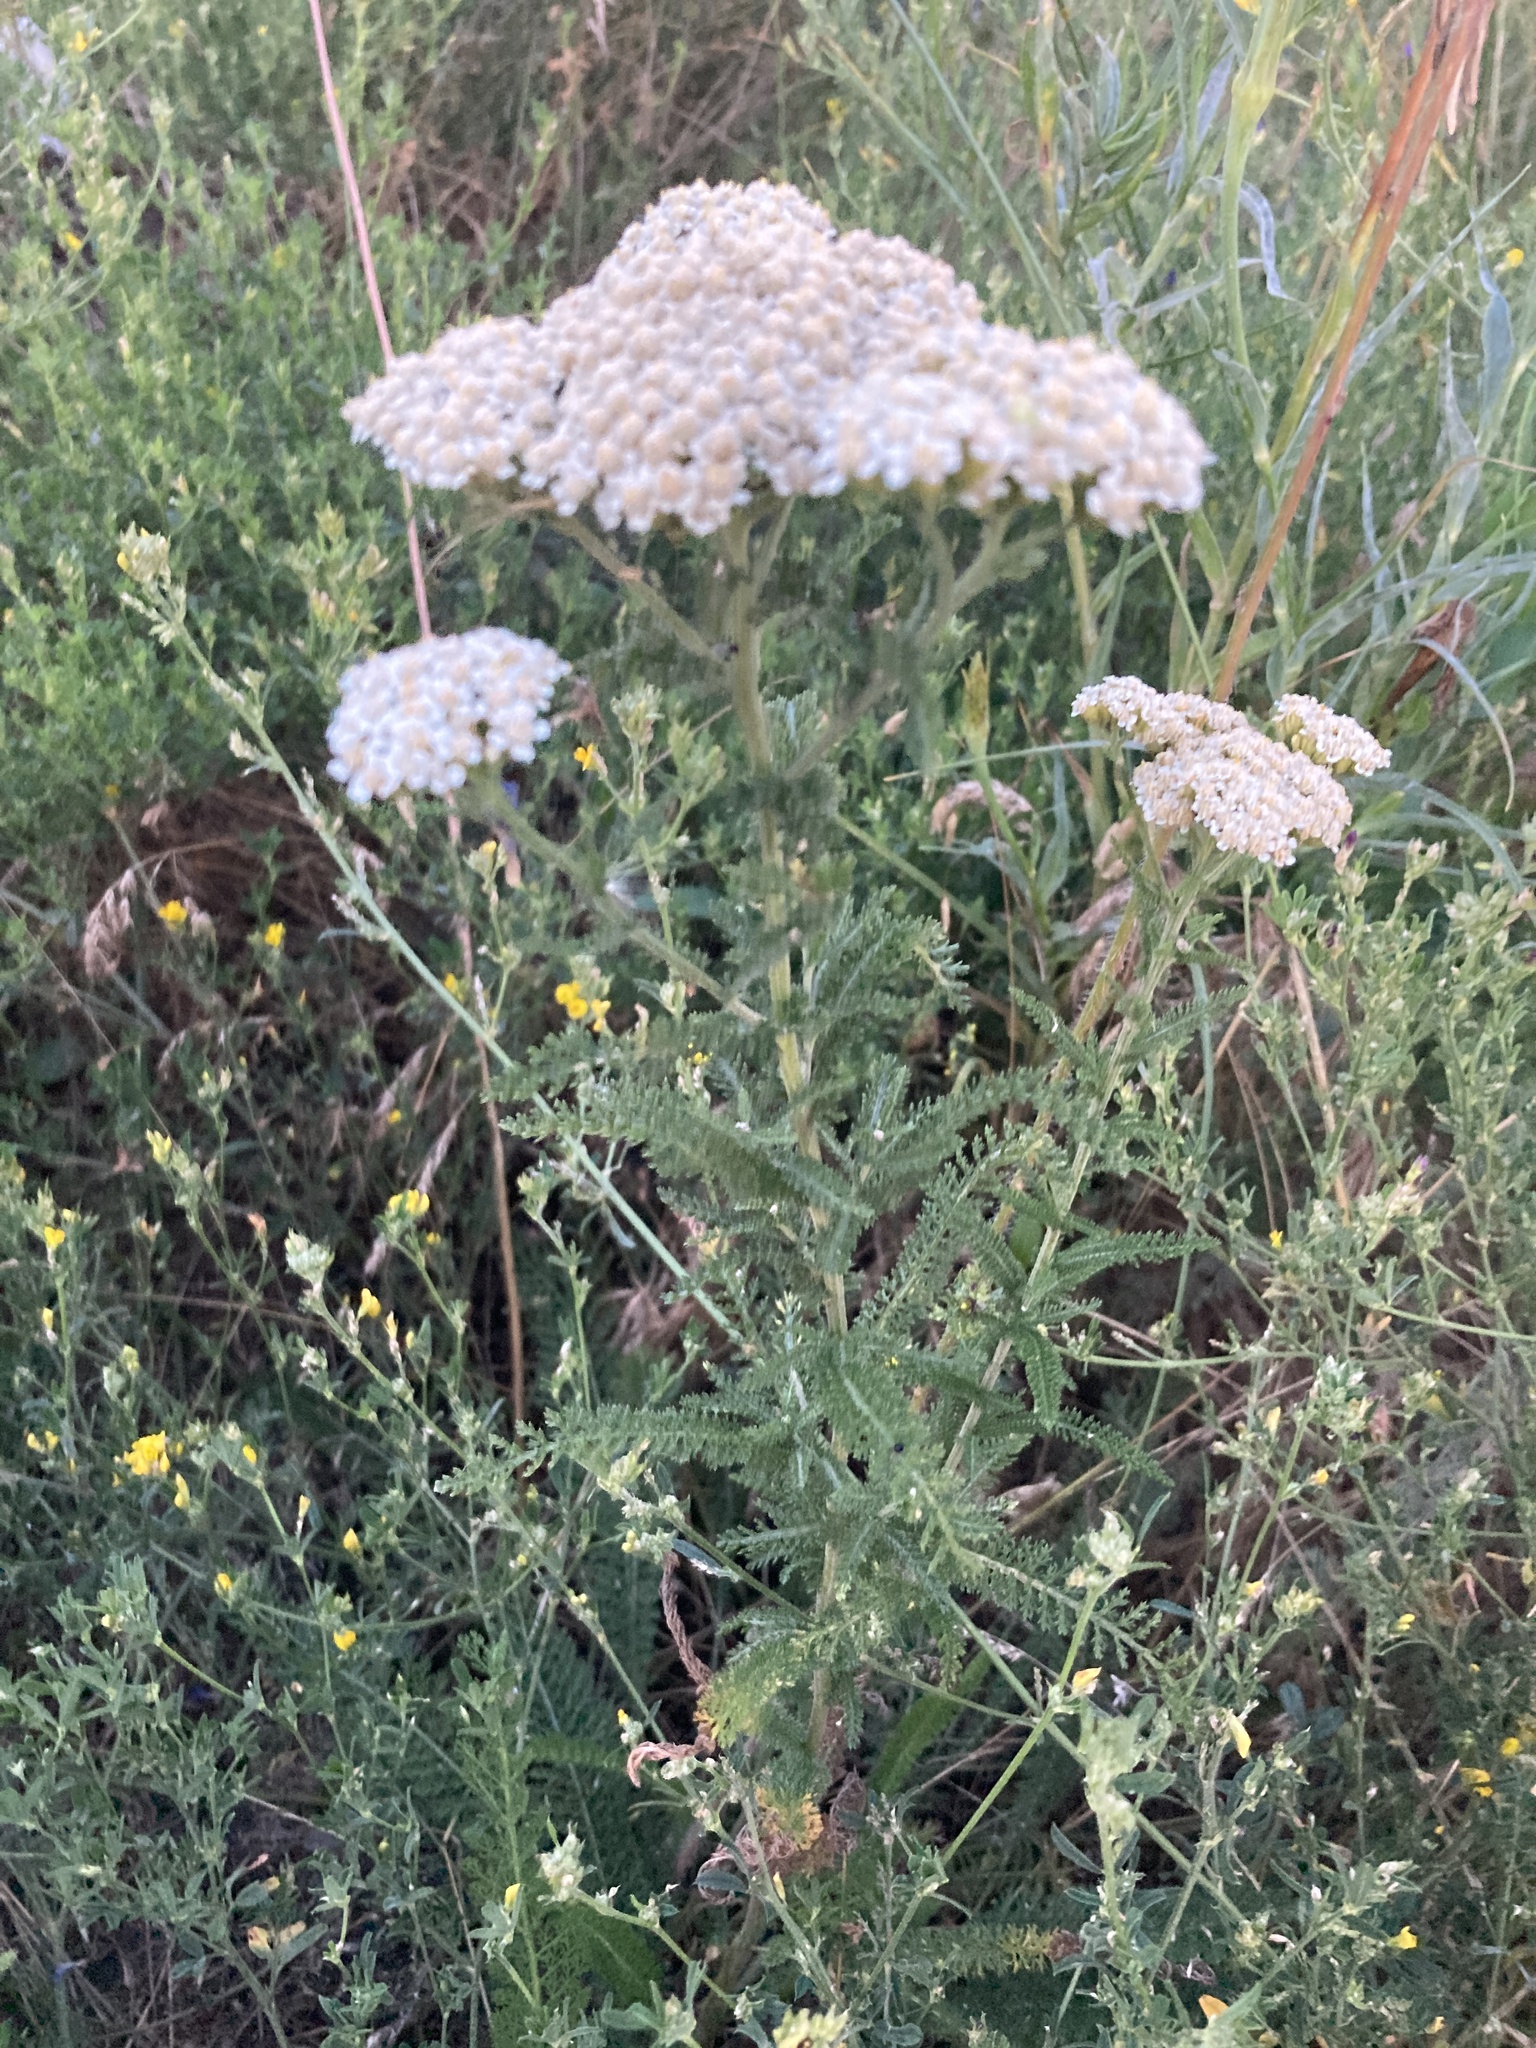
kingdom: Plantae
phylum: Tracheophyta
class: Magnoliopsida
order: Asterales
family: Asteraceae
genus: Achillea
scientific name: Achillea setacea
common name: Bristly yarrow
